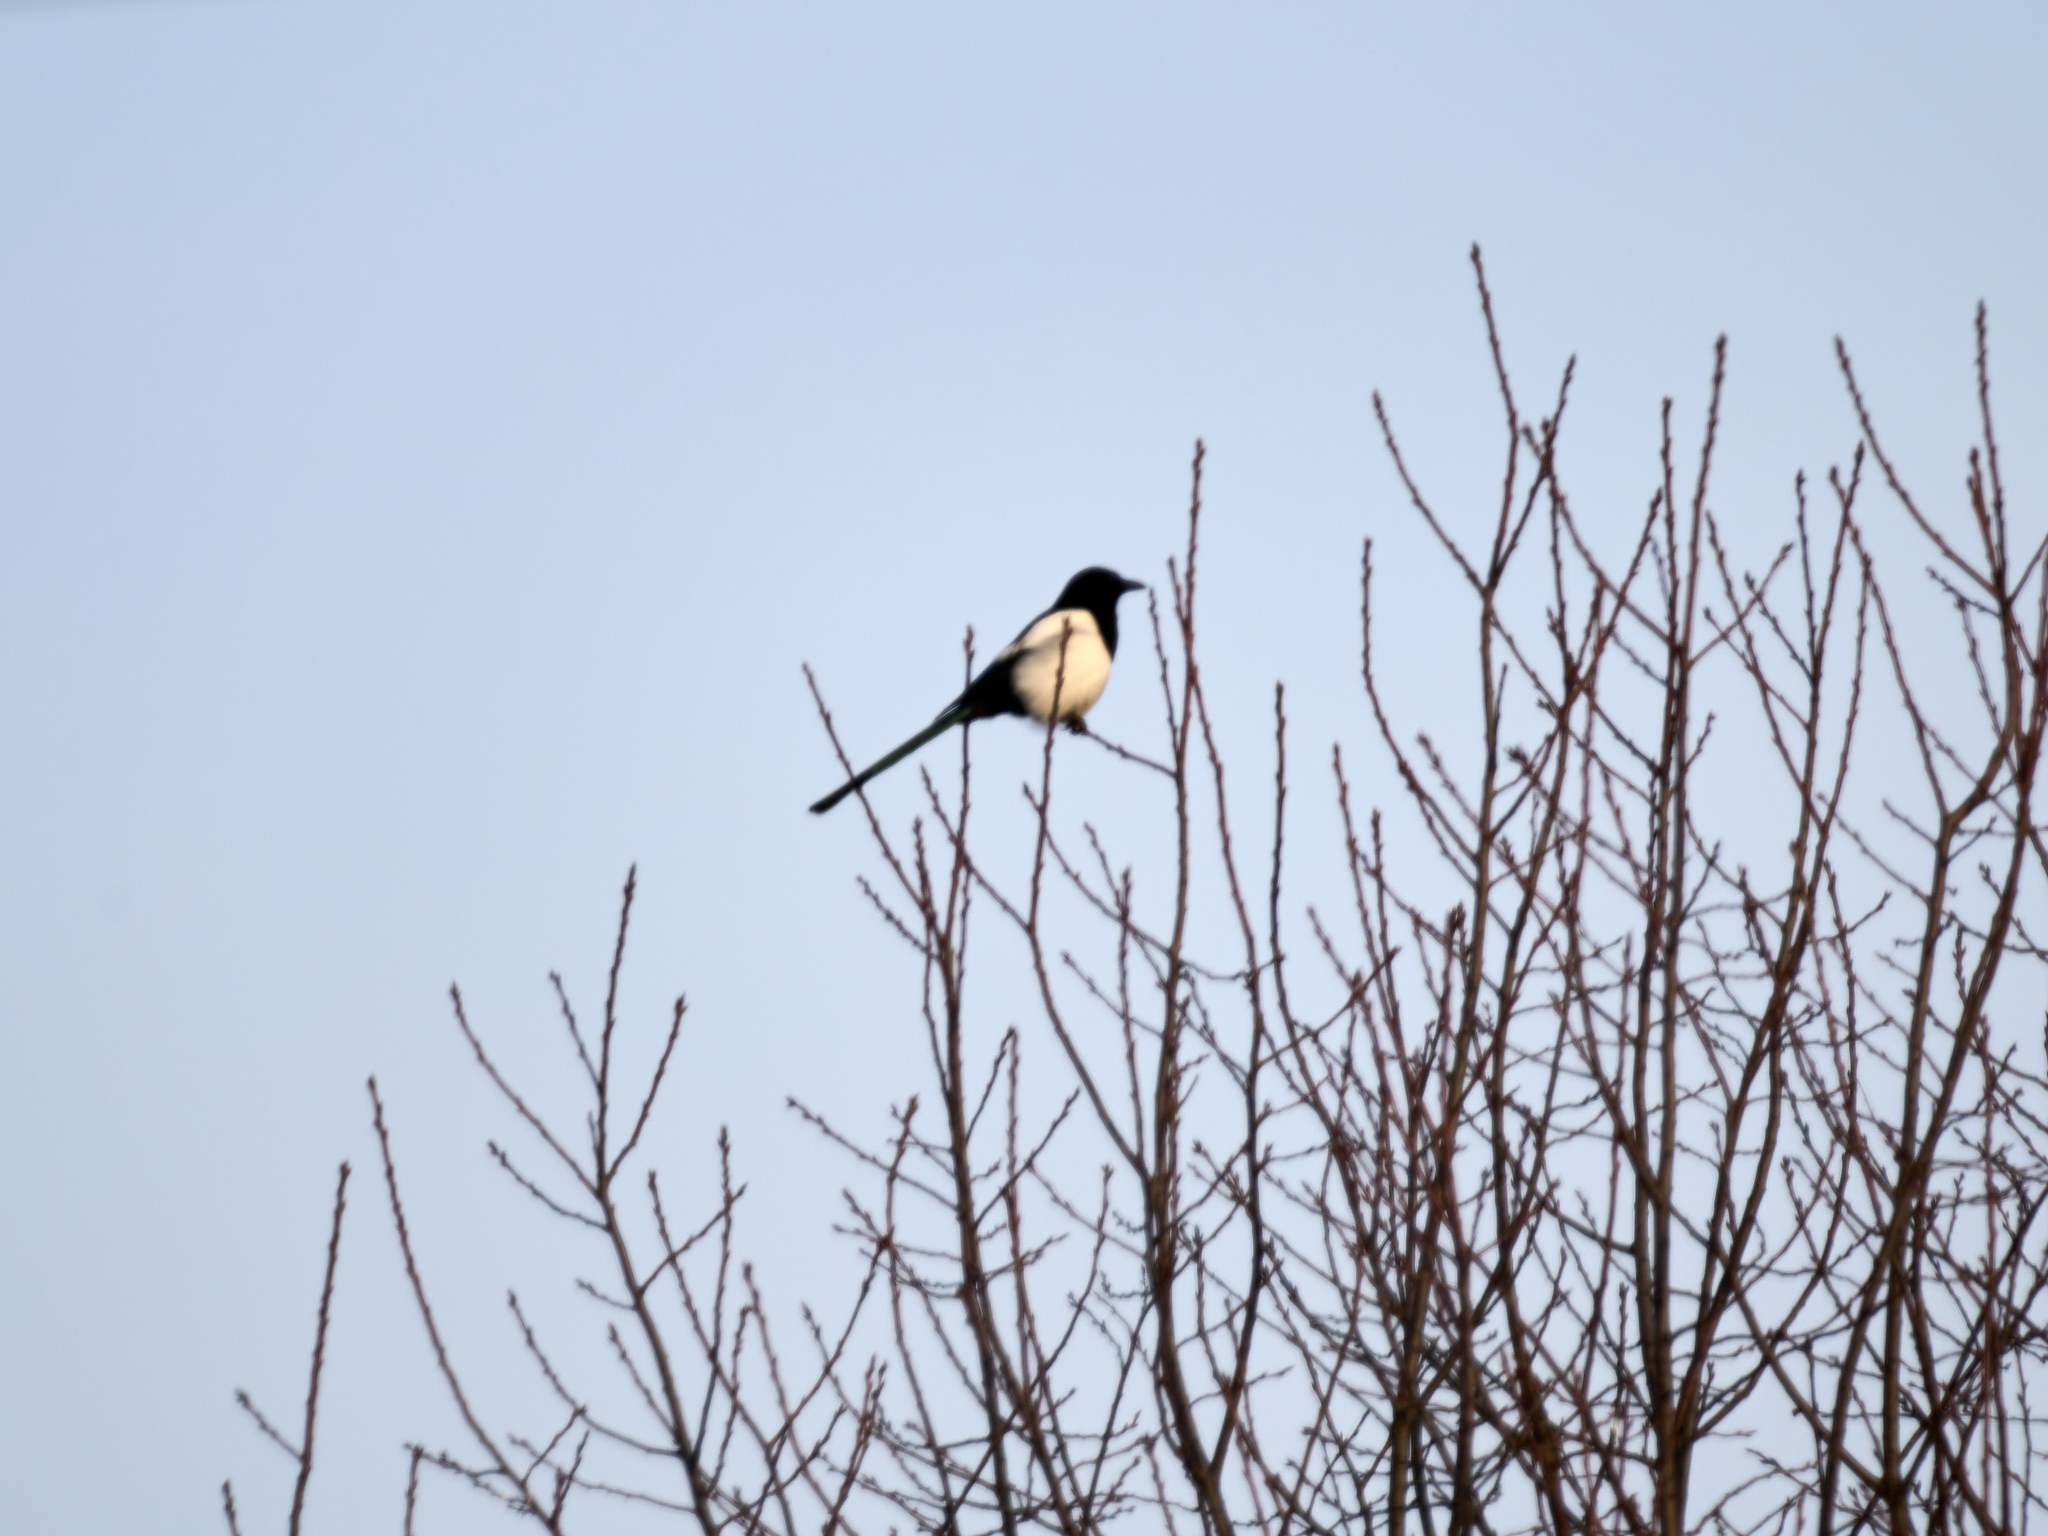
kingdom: Animalia
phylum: Chordata
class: Aves
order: Passeriformes
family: Corvidae
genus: Pica
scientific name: Pica pica
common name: Eurasian magpie
